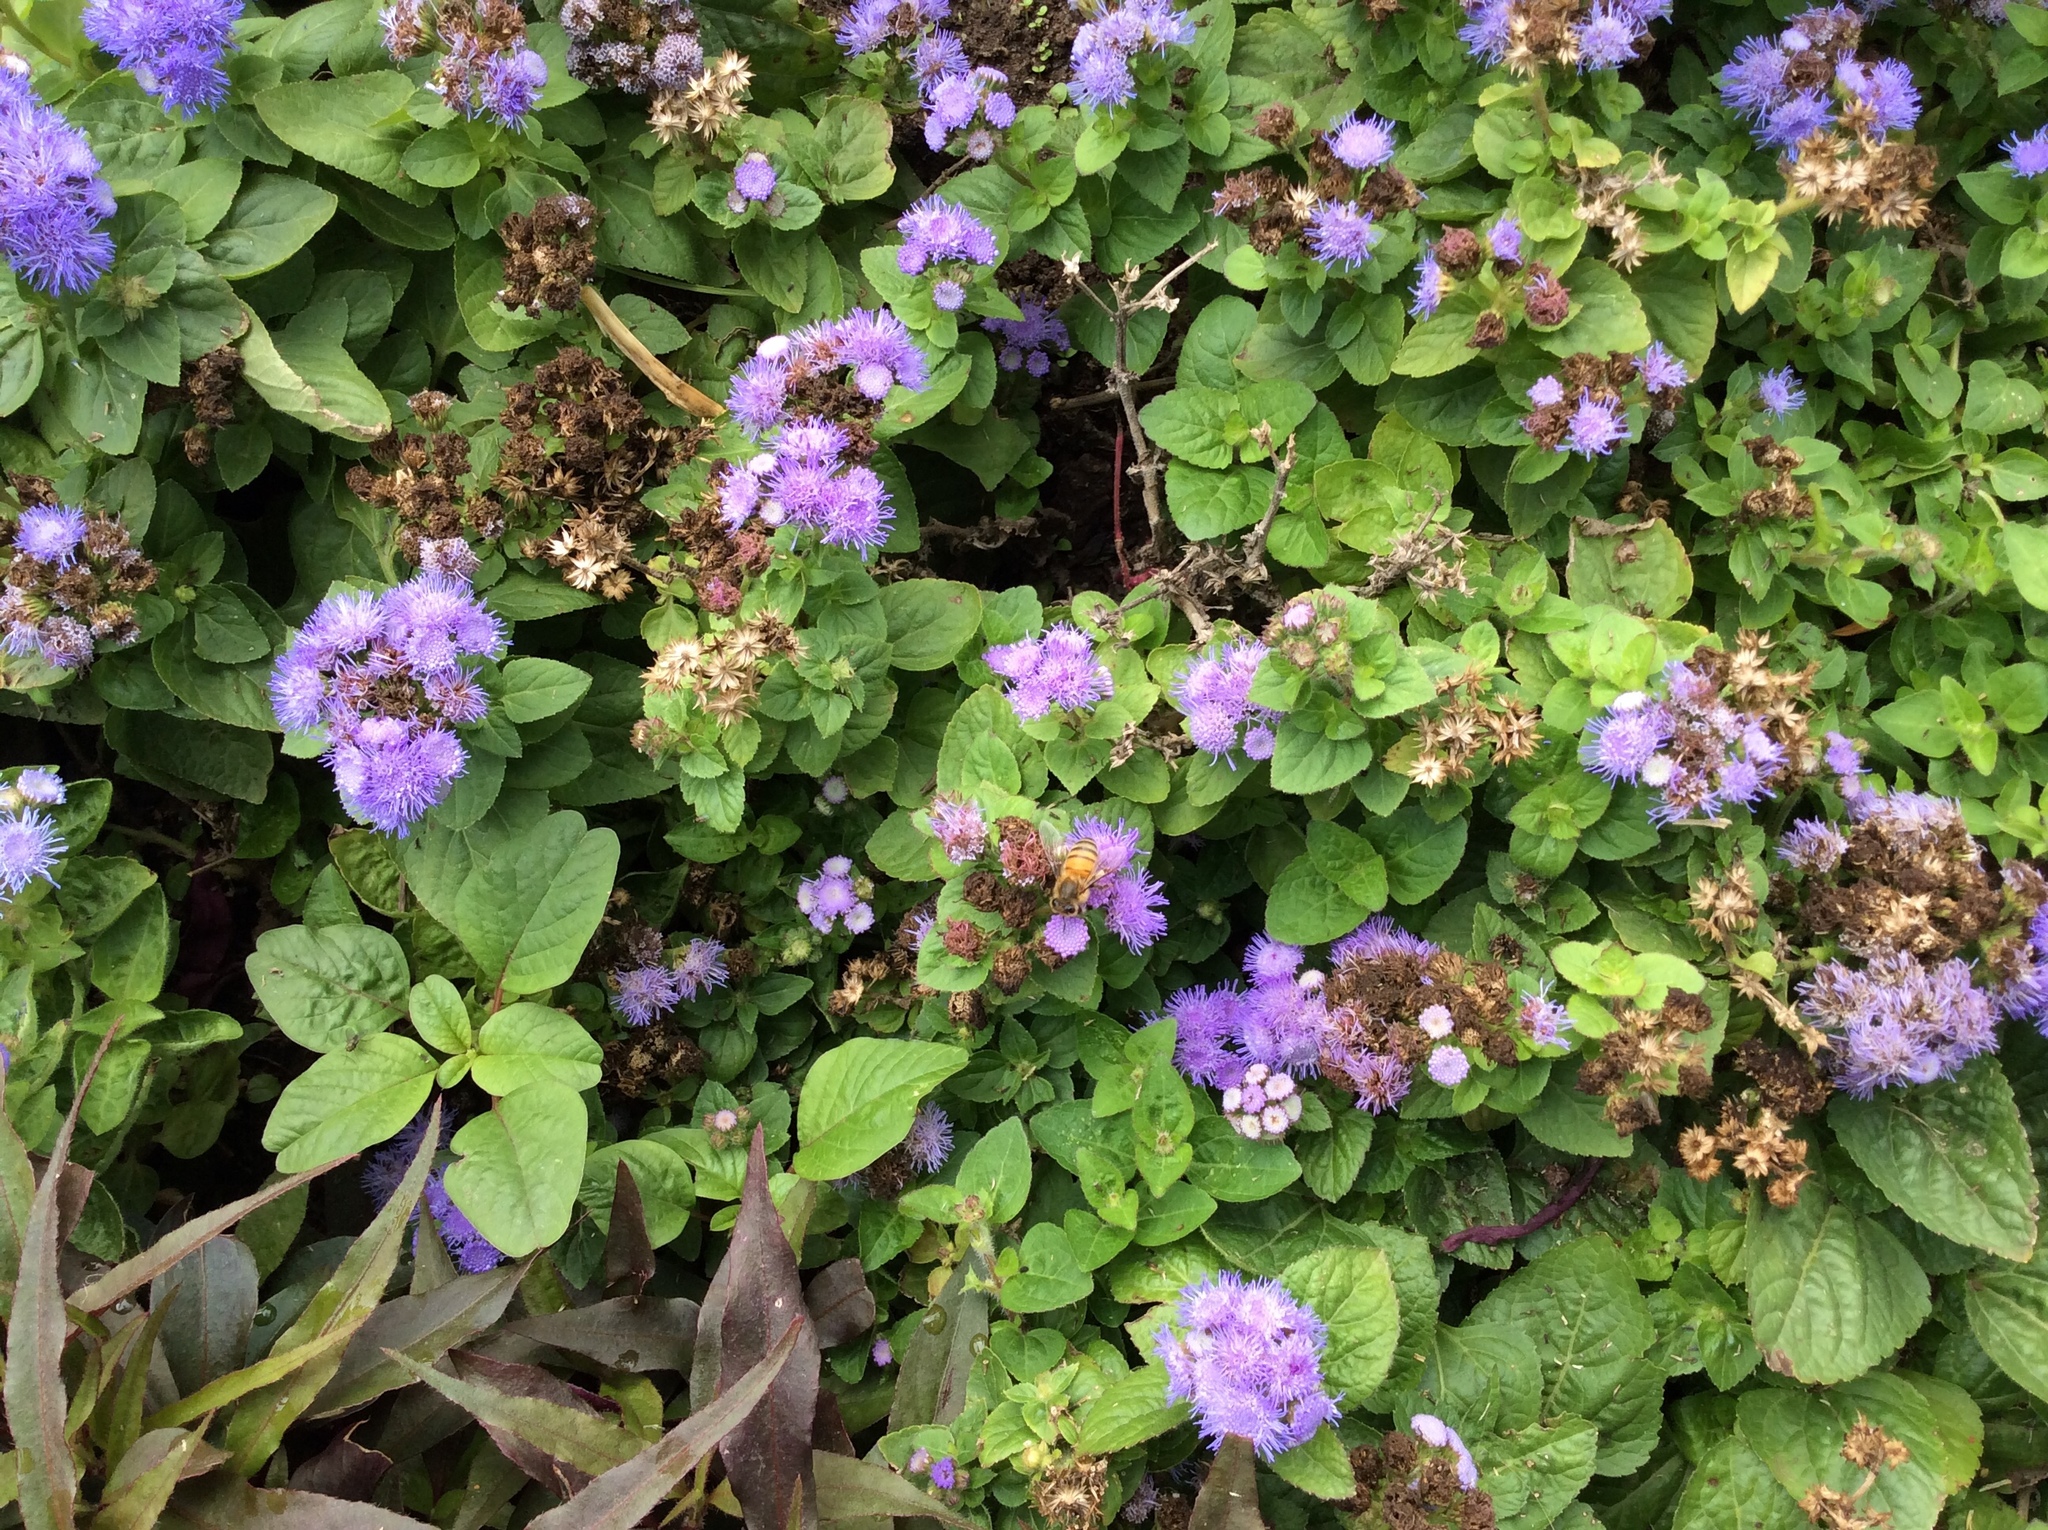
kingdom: Animalia
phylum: Arthropoda
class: Insecta
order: Hymenoptera
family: Apidae
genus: Apis
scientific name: Apis mellifera
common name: Honey bee
